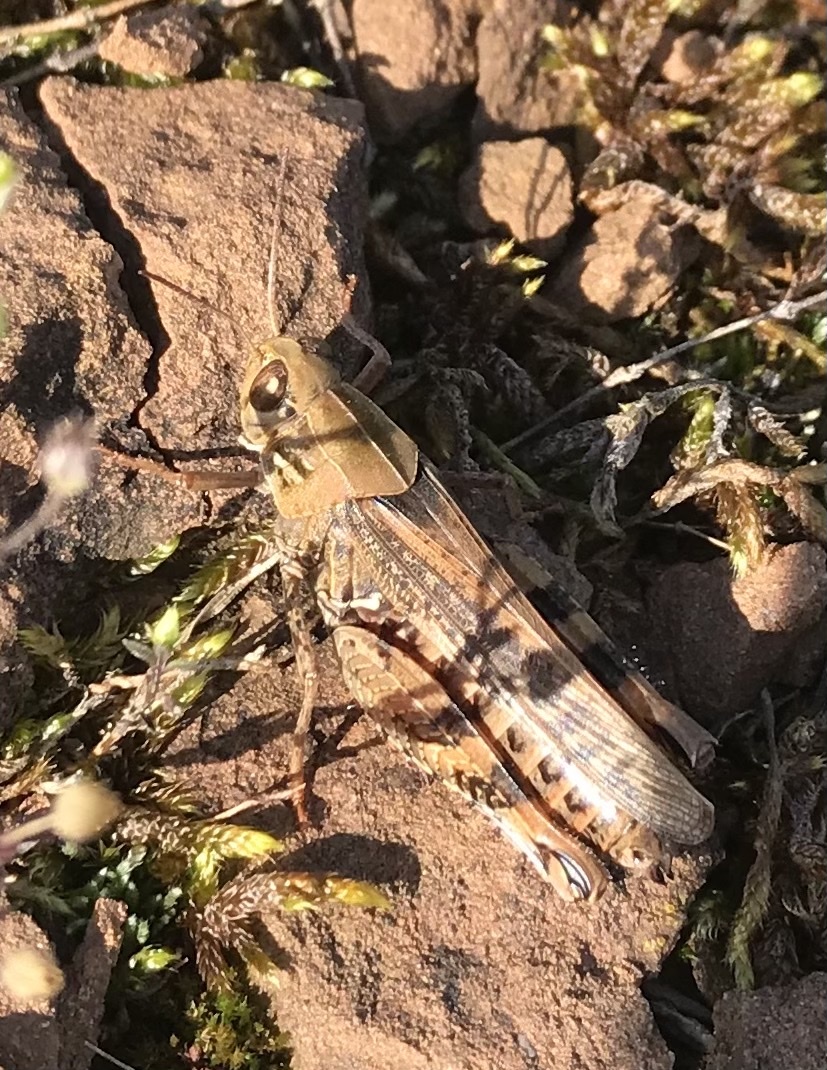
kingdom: Animalia
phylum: Arthropoda
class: Insecta
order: Orthoptera
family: Acrididae
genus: Calliptamus
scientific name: Calliptamus italicus
